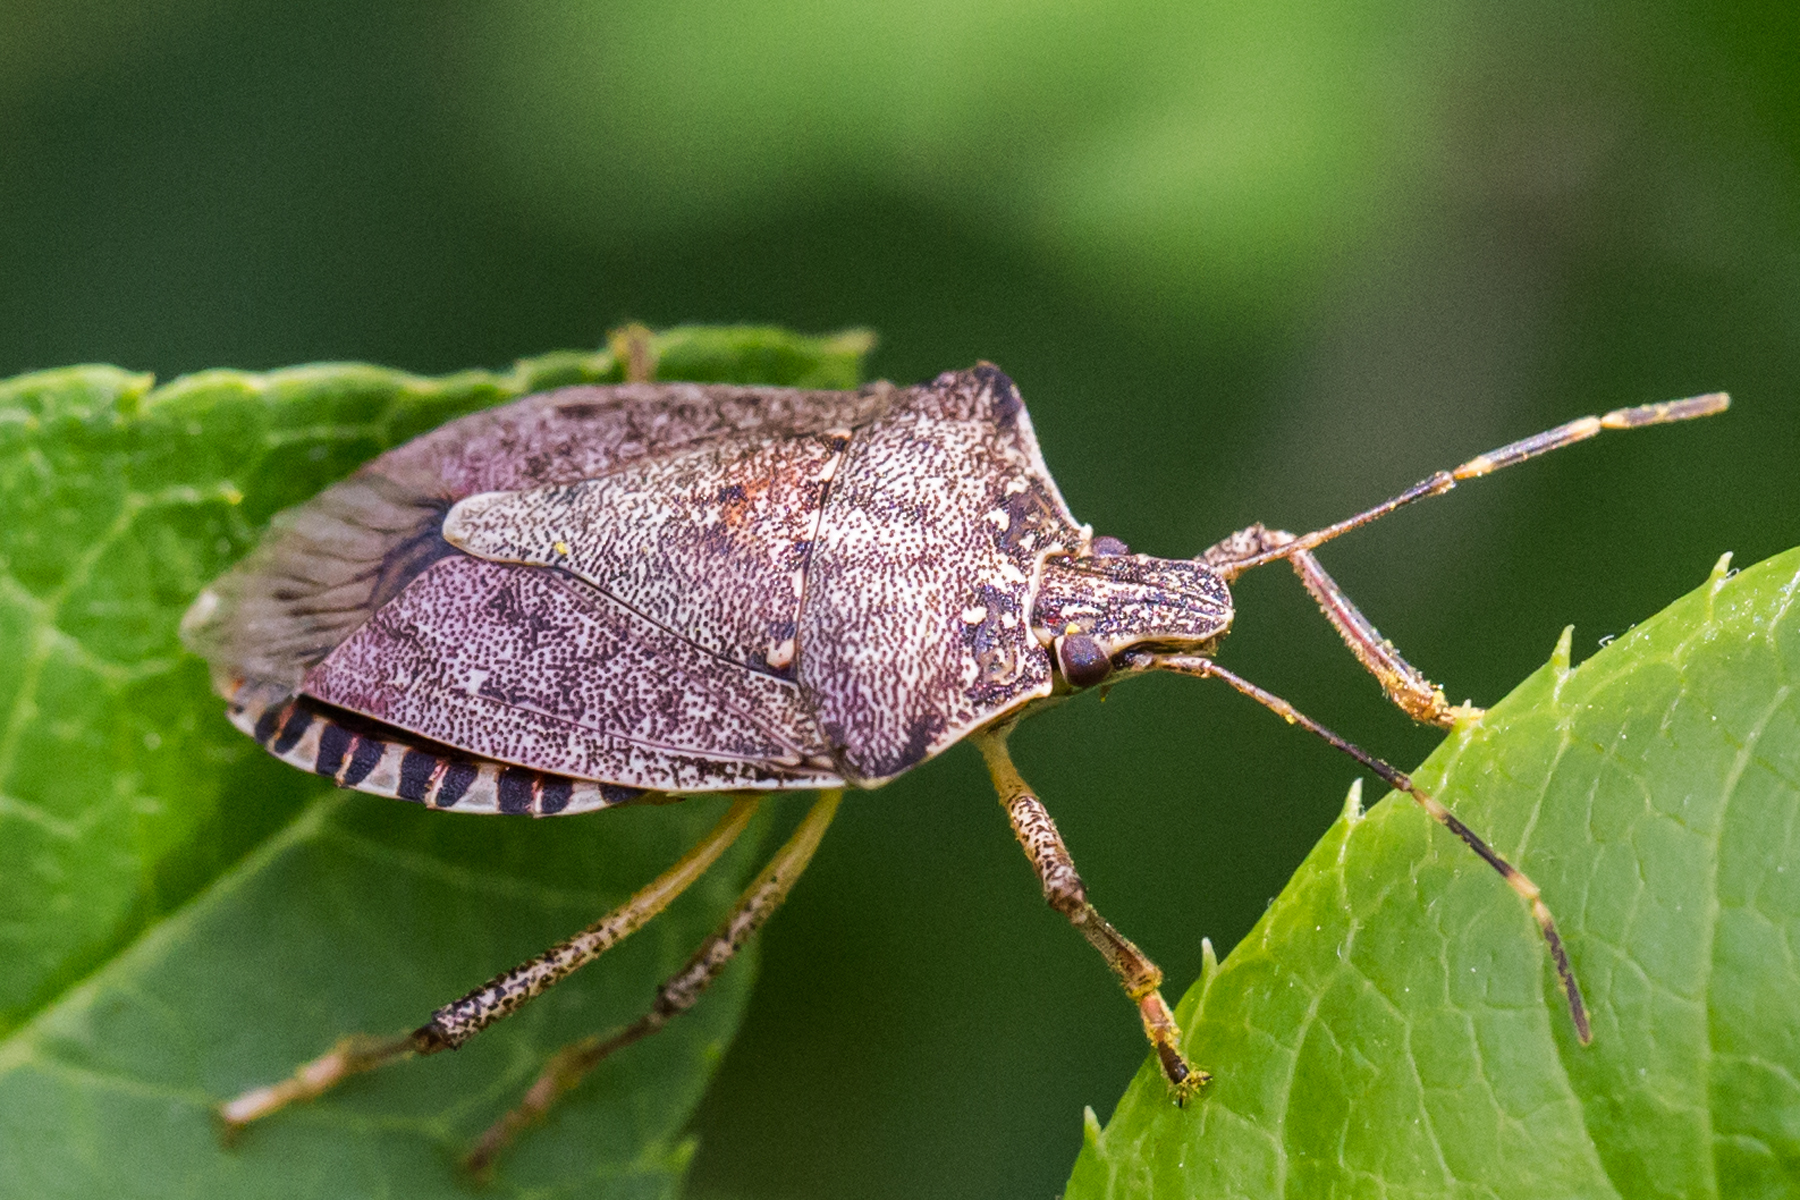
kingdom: Animalia
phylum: Arthropoda
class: Insecta
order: Hemiptera
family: Pentatomidae
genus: Halyomorpha
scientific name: Halyomorpha halys
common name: Brown marmorated stink bug
